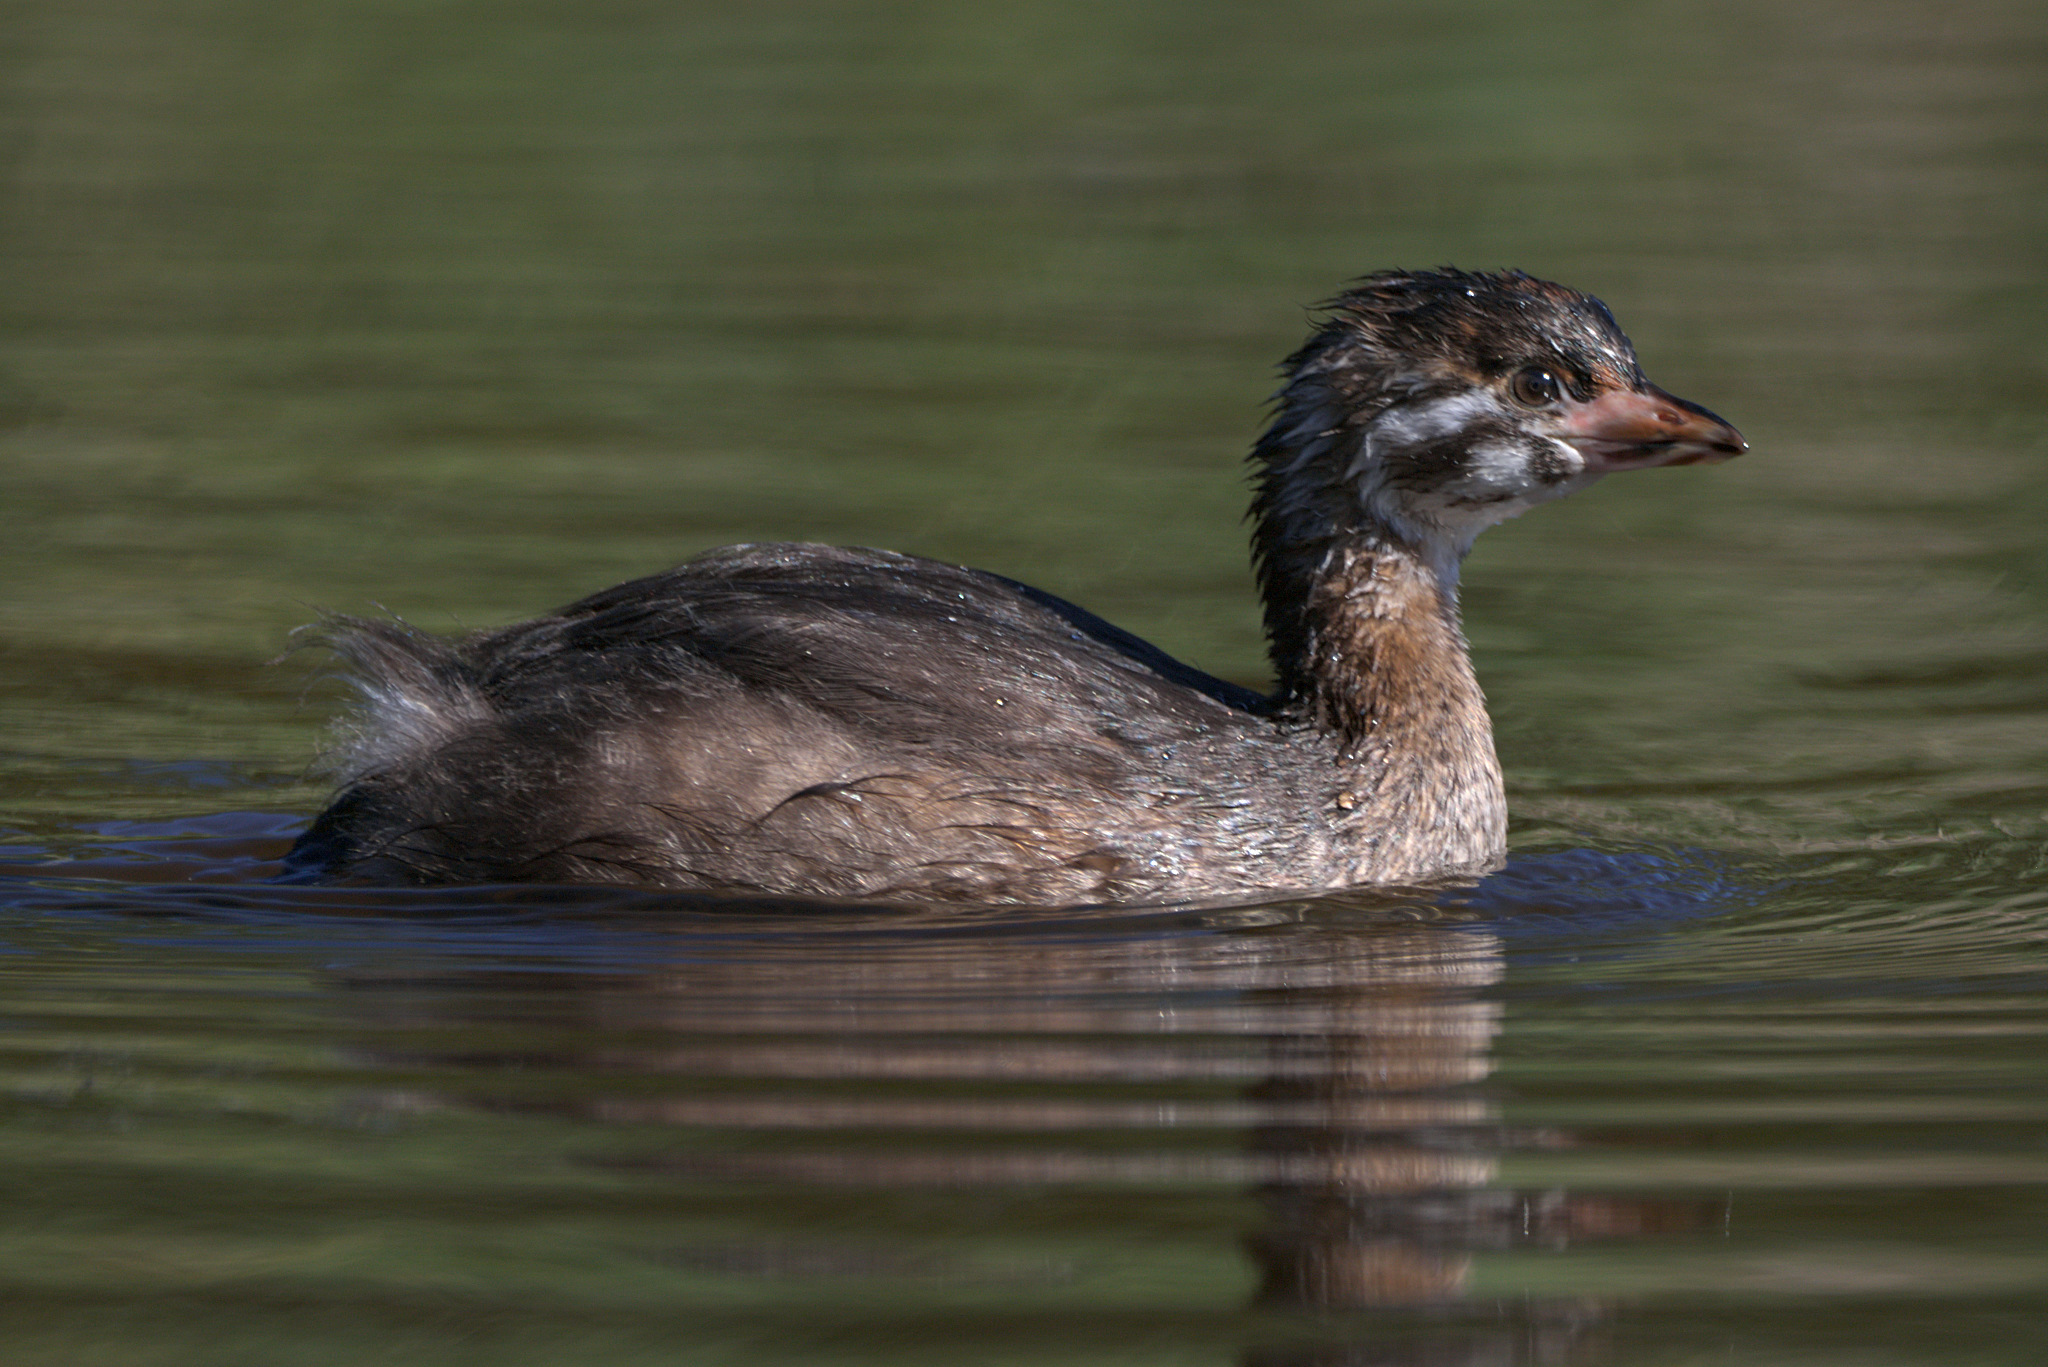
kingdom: Animalia
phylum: Chordata
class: Aves
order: Podicipediformes
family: Podicipedidae
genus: Podilymbus
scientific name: Podilymbus podiceps
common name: Pied-billed grebe
